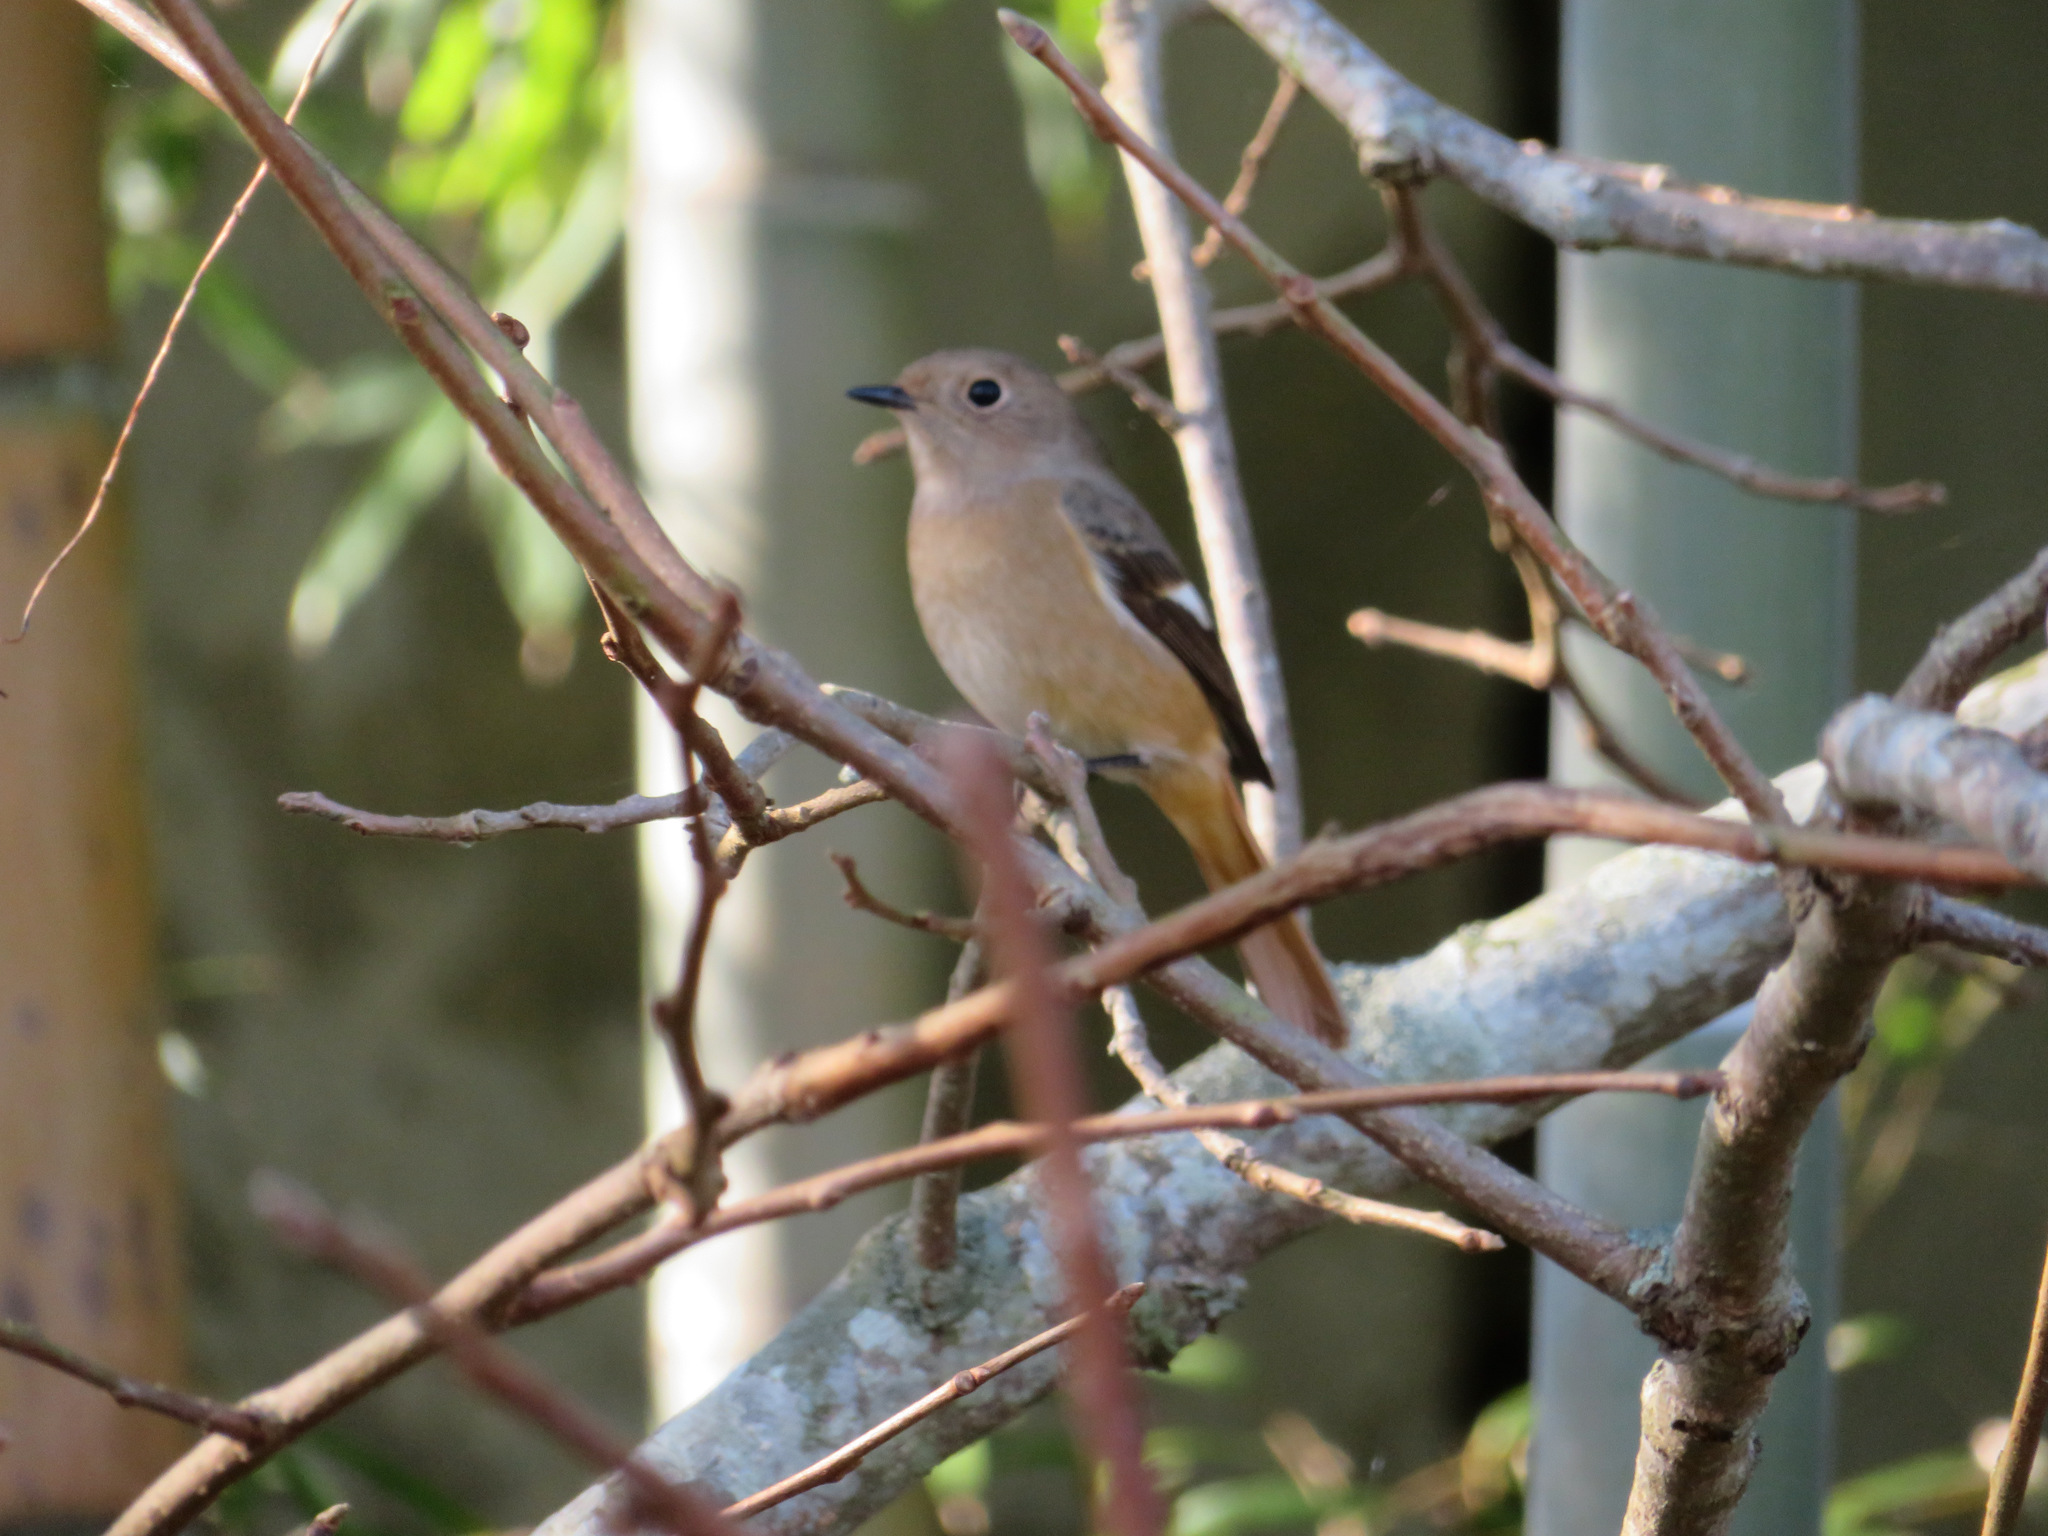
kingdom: Animalia
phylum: Chordata
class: Aves
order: Passeriformes
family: Muscicapidae
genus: Phoenicurus
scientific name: Phoenicurus auroreus
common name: Daurian redstart
